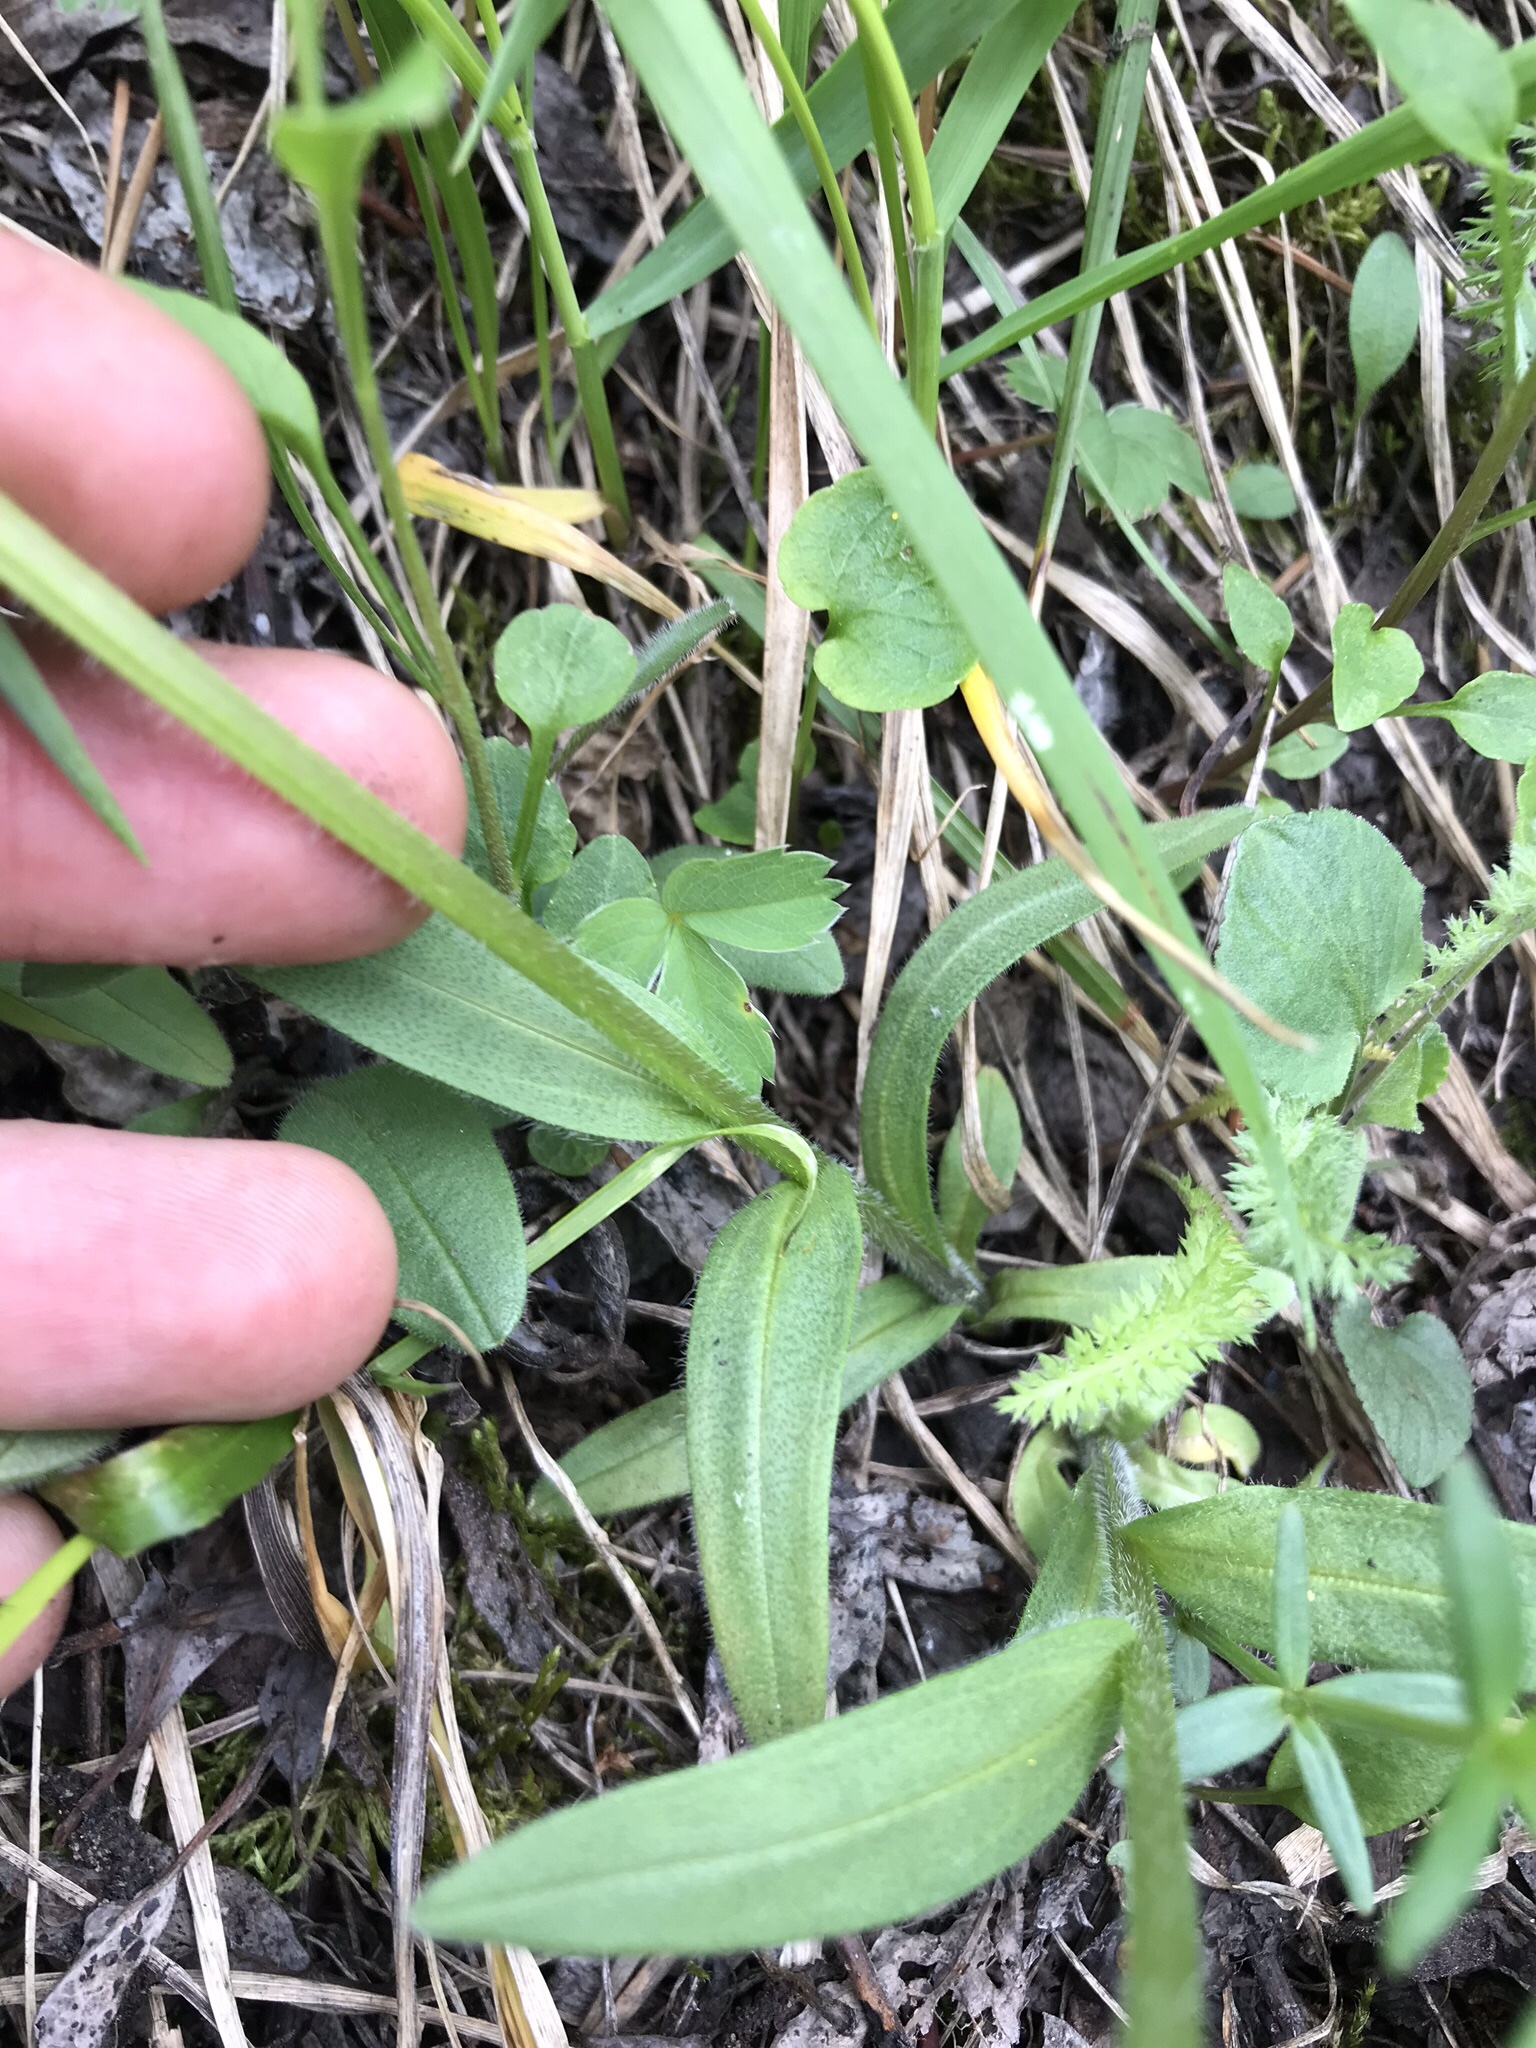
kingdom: Plantae
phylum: Tracheophyta
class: Magnoliopsida
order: Boraginales
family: Boraginaceae
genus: Myosotis
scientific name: Myosotis asiatica
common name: Asian forget-me-not
